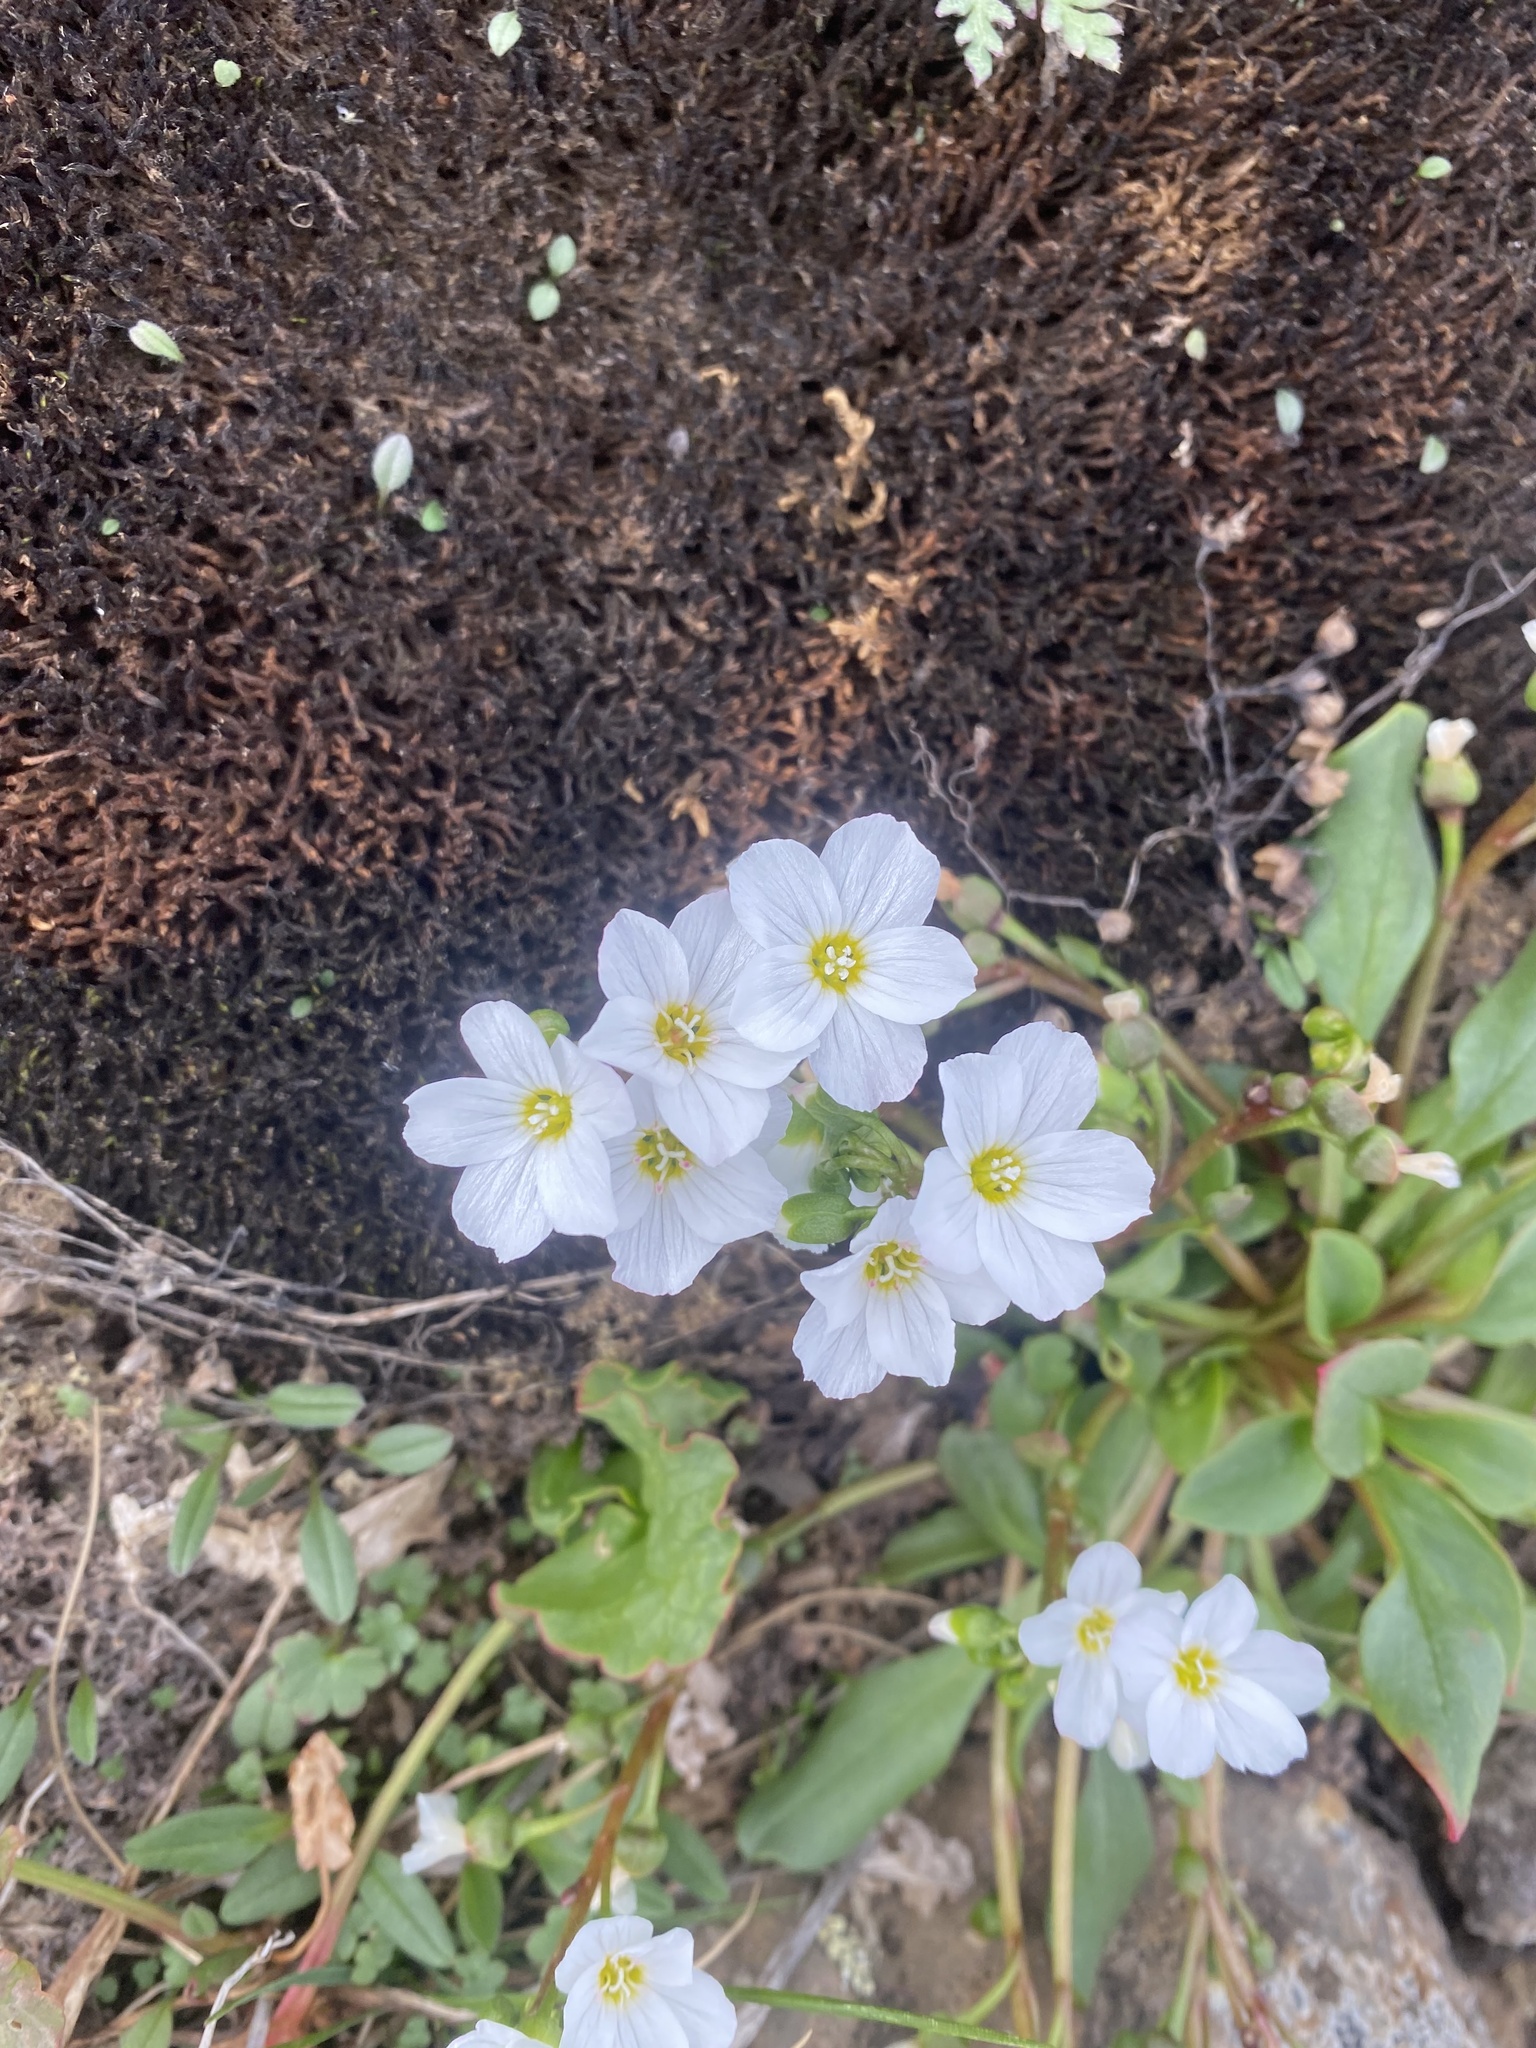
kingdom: Plantae
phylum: Tracheophyta
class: Magnoliopsida
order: Caryophyllales
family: Montiaceae
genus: Claytonia
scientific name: Claytonia joanneana
